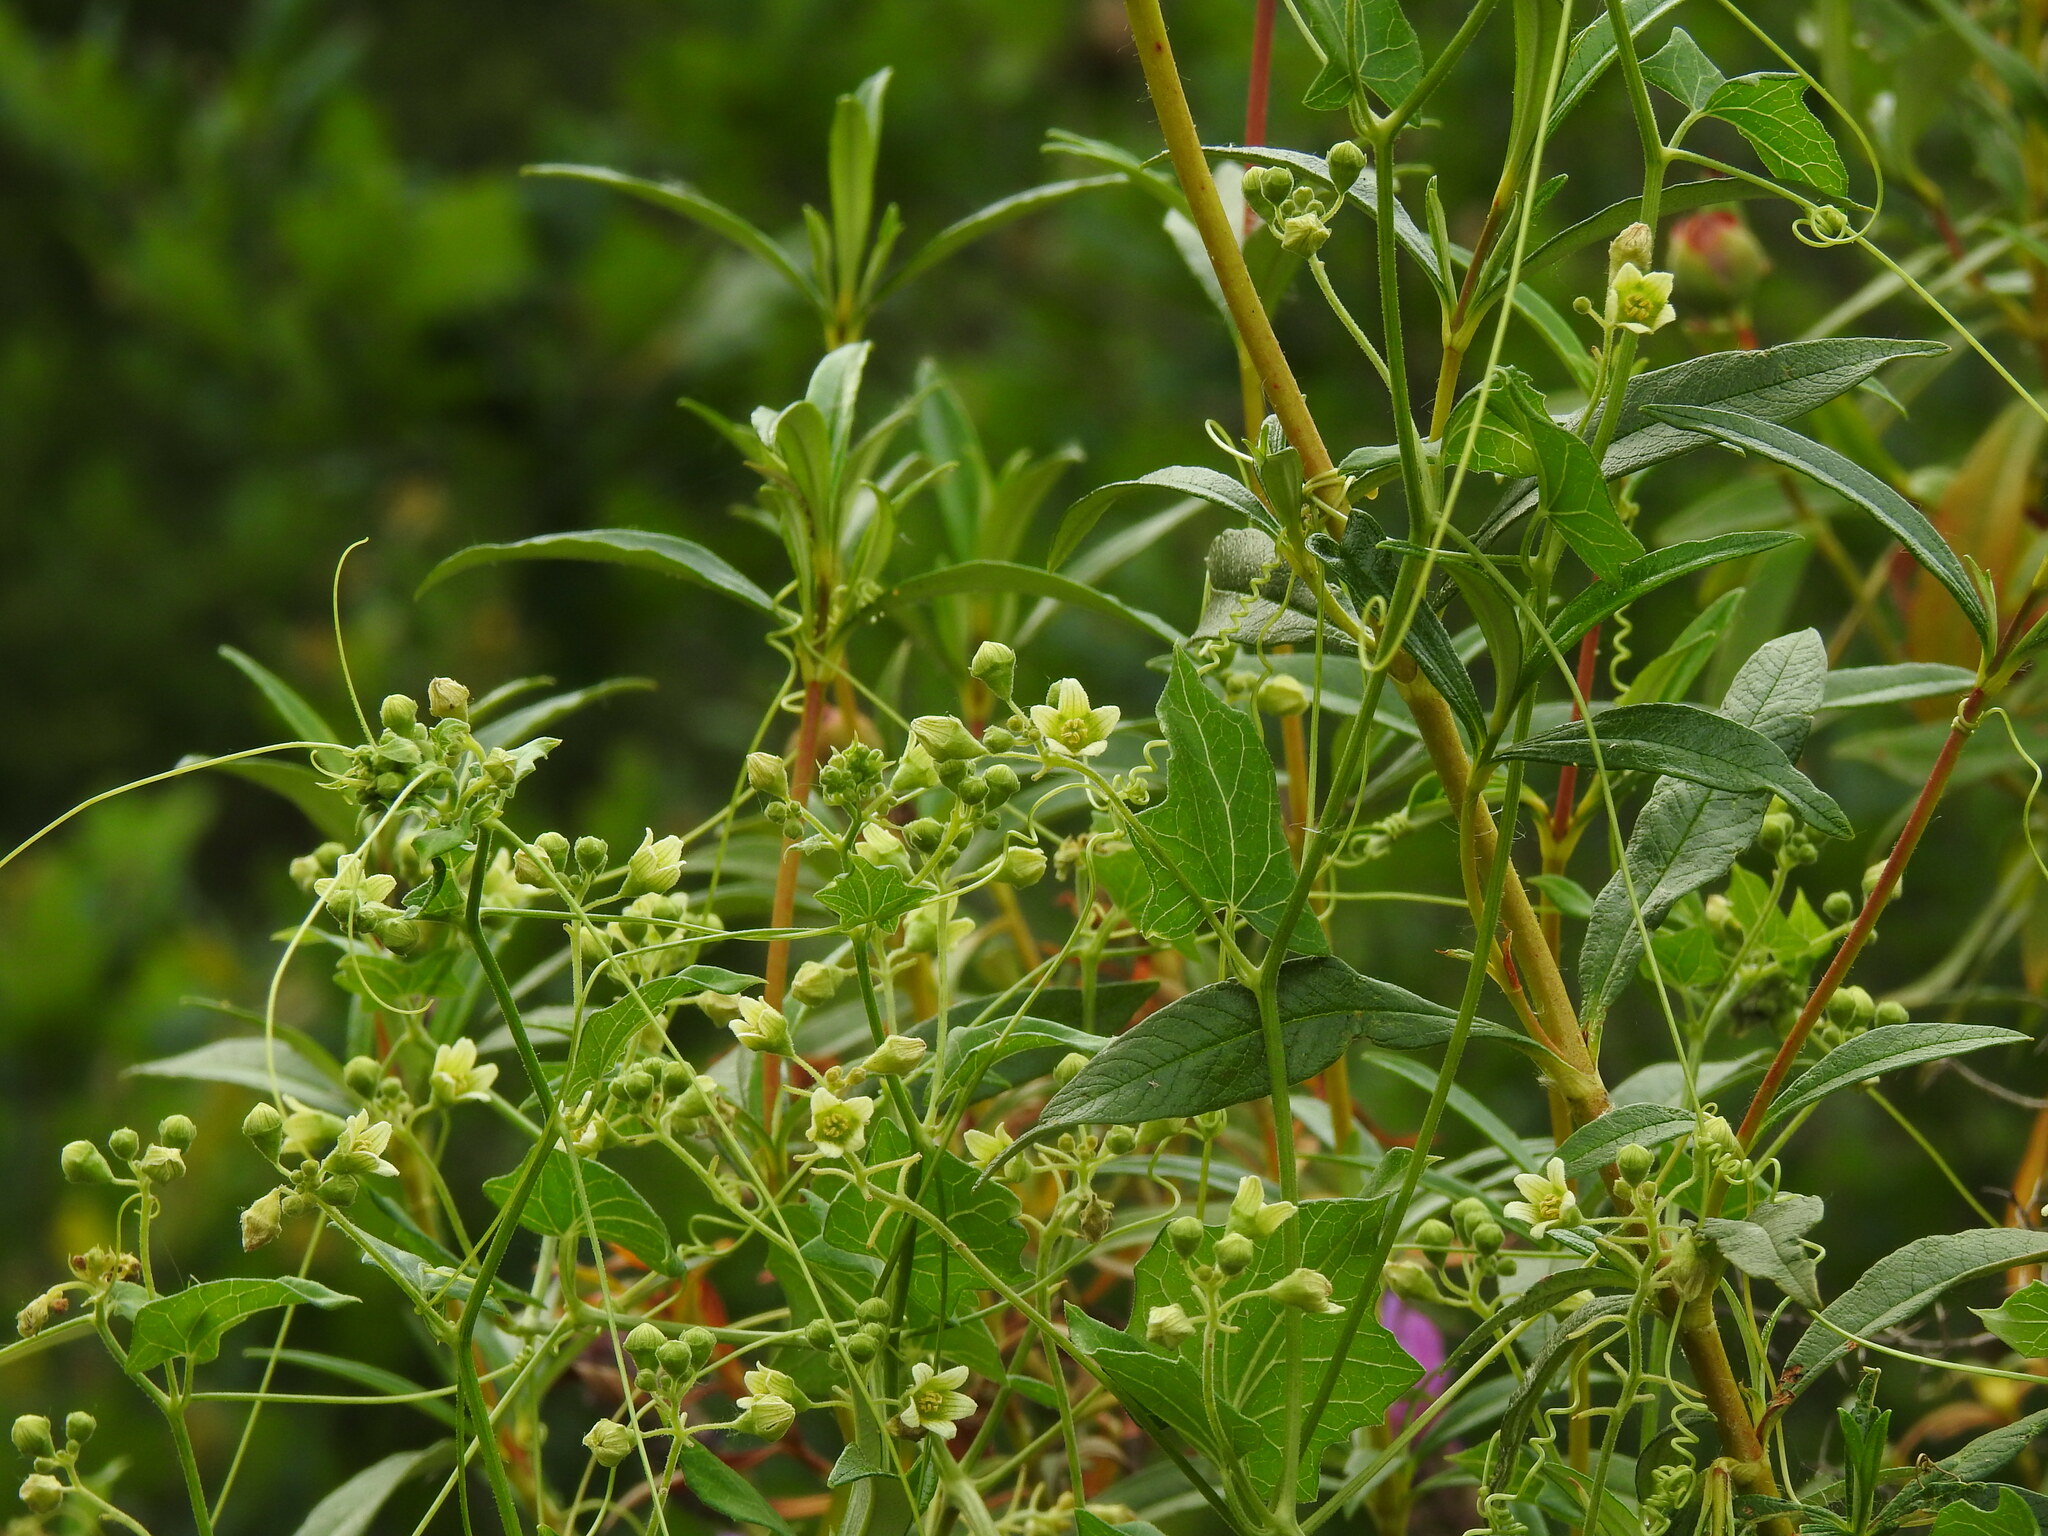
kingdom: Plantae
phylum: Tracheophyta
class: Magnoliopsida
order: Cucurbitales
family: Cucurbitaceae
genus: Bryonia
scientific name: Bryonia dioica
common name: White bryony
